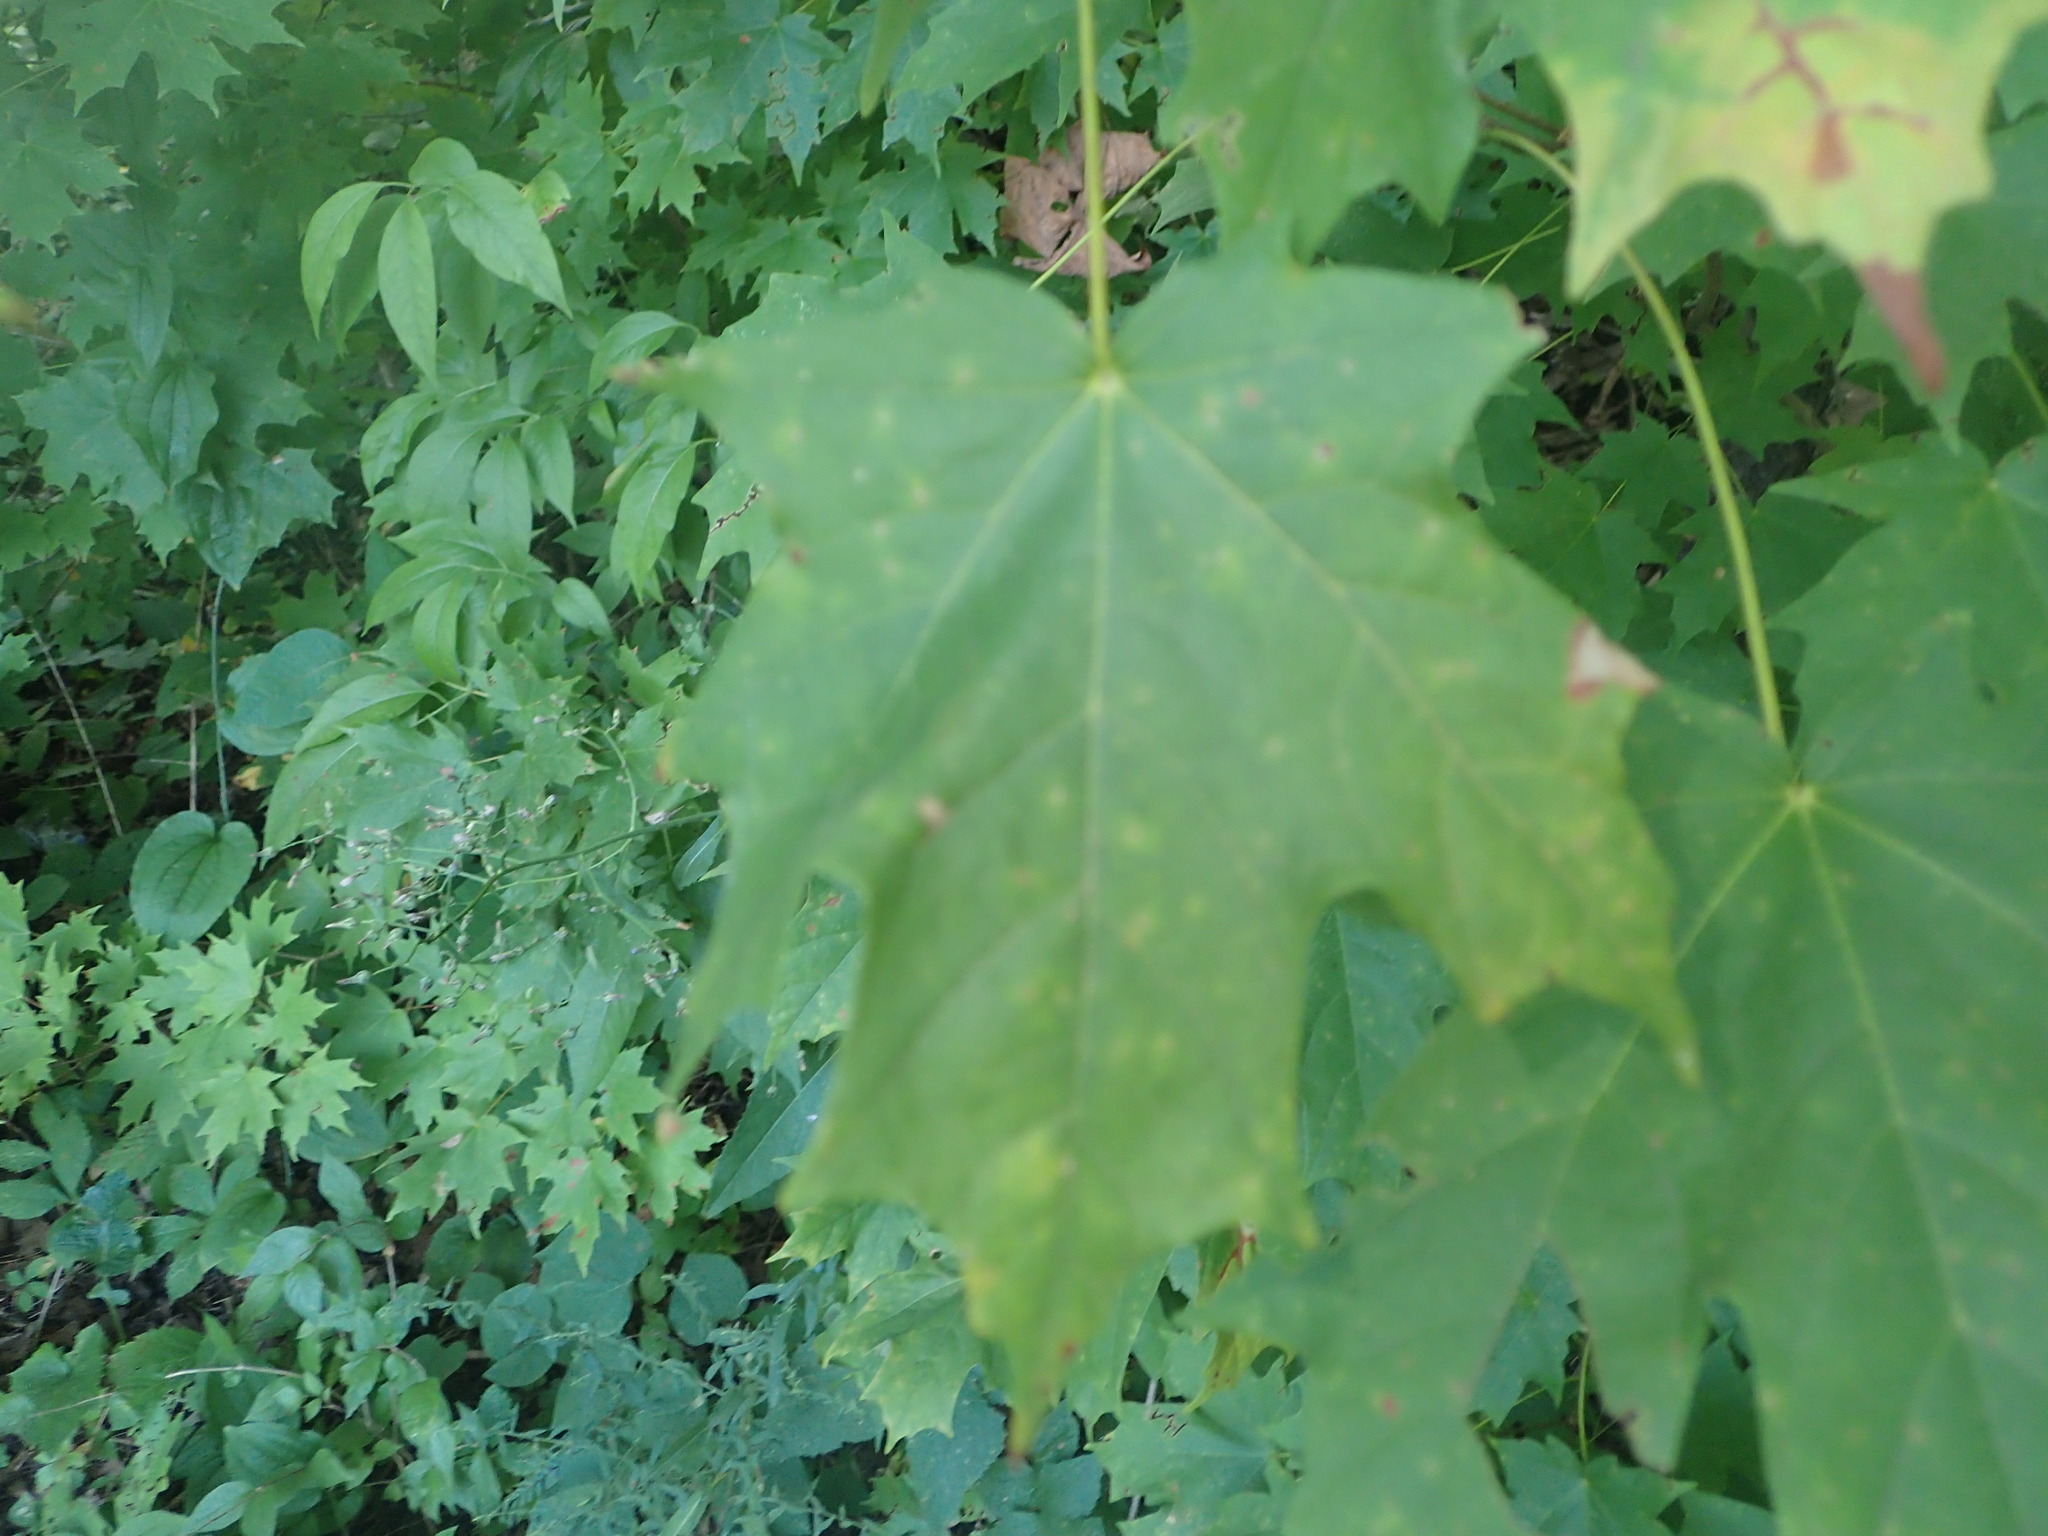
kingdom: Plantae
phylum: Tracheophyta
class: Magnoliopsida
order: Sapindales
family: Sapindaceae
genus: Acer
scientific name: Acer saccharum
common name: Sugar maple
